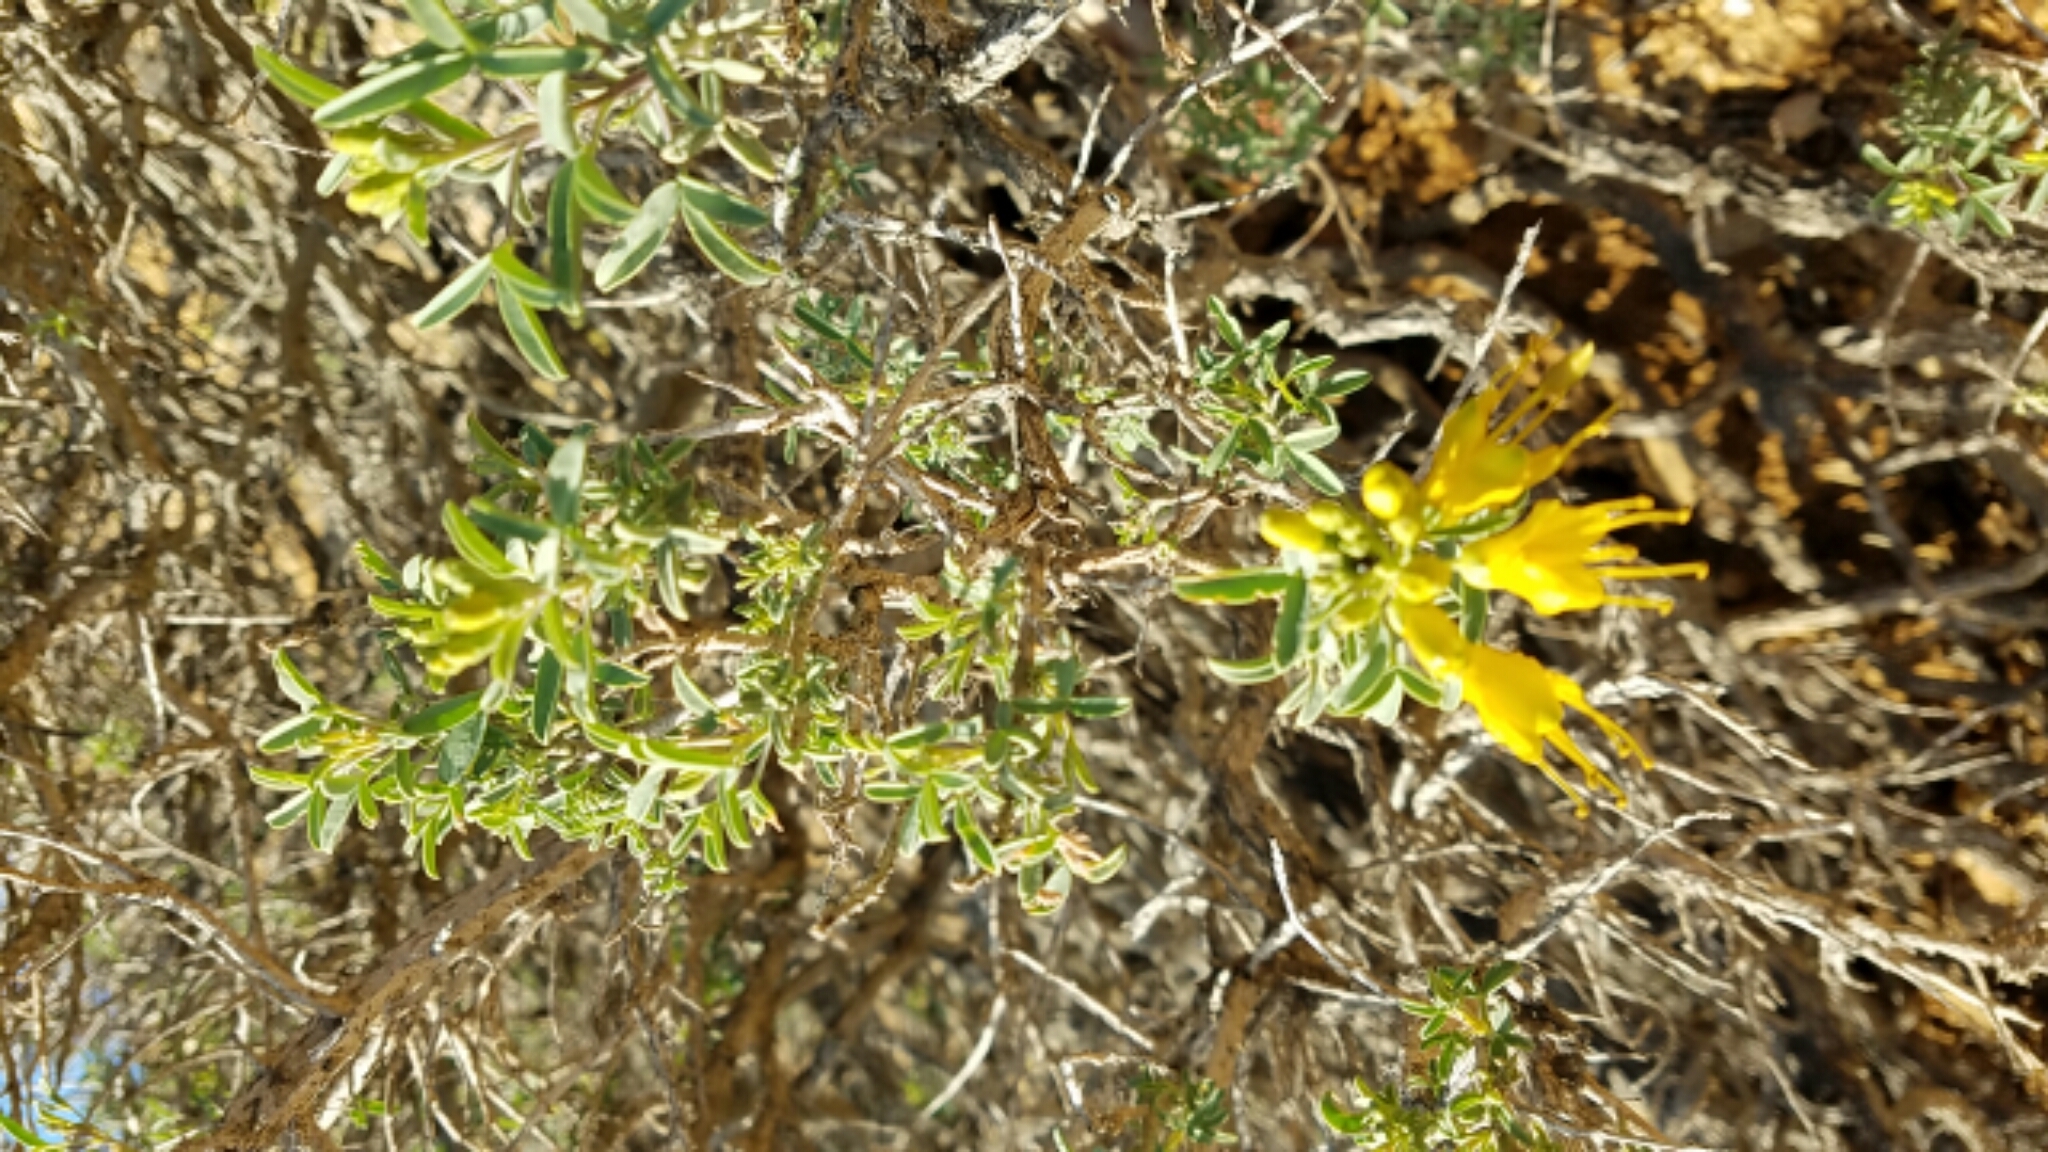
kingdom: Plantae
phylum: Tracheophyta
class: Magnoliopsida
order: Brassicales
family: Cleomaceae
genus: Cleomella
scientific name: Cleomella arborea
